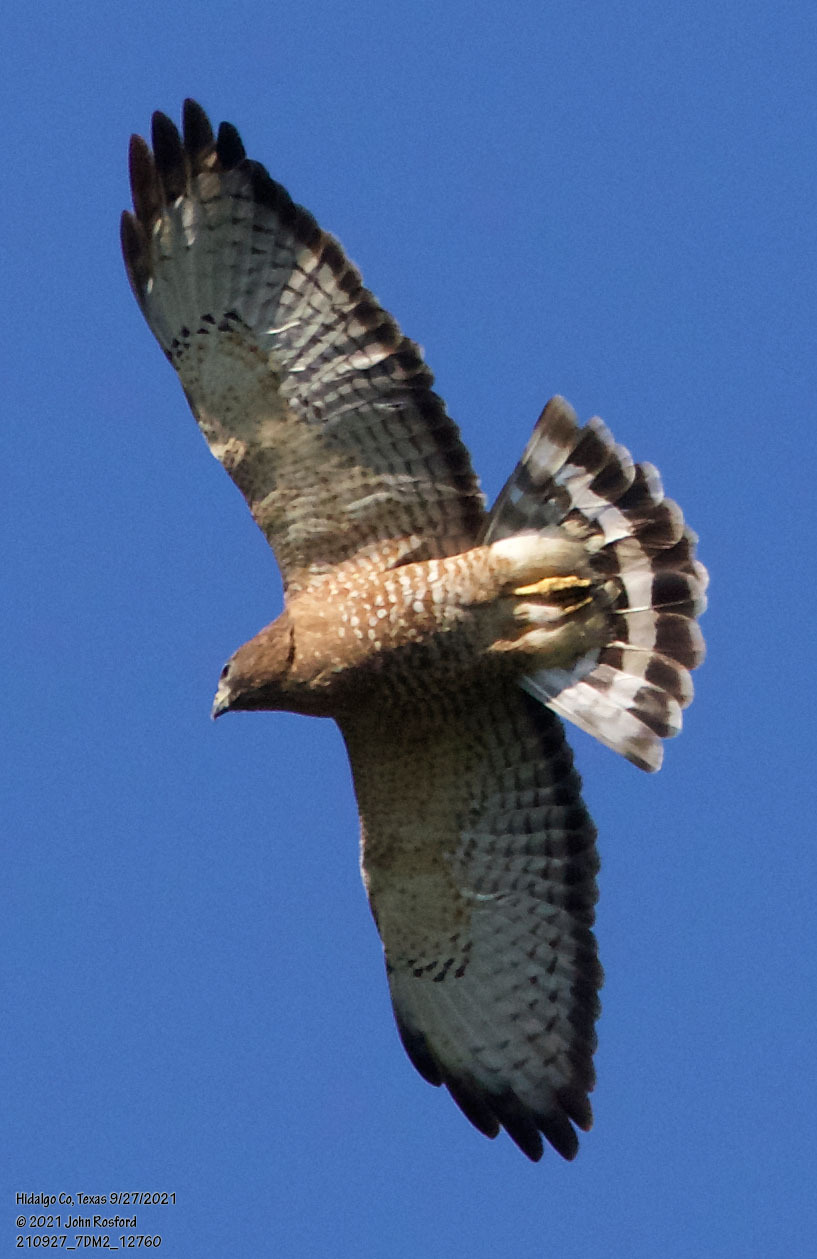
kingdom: Animalia
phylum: Chordata
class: Aves
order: Accipitriformes
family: Accipitridae
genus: Buteo
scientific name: Buteo platypterus
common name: Broad-winged hawk
